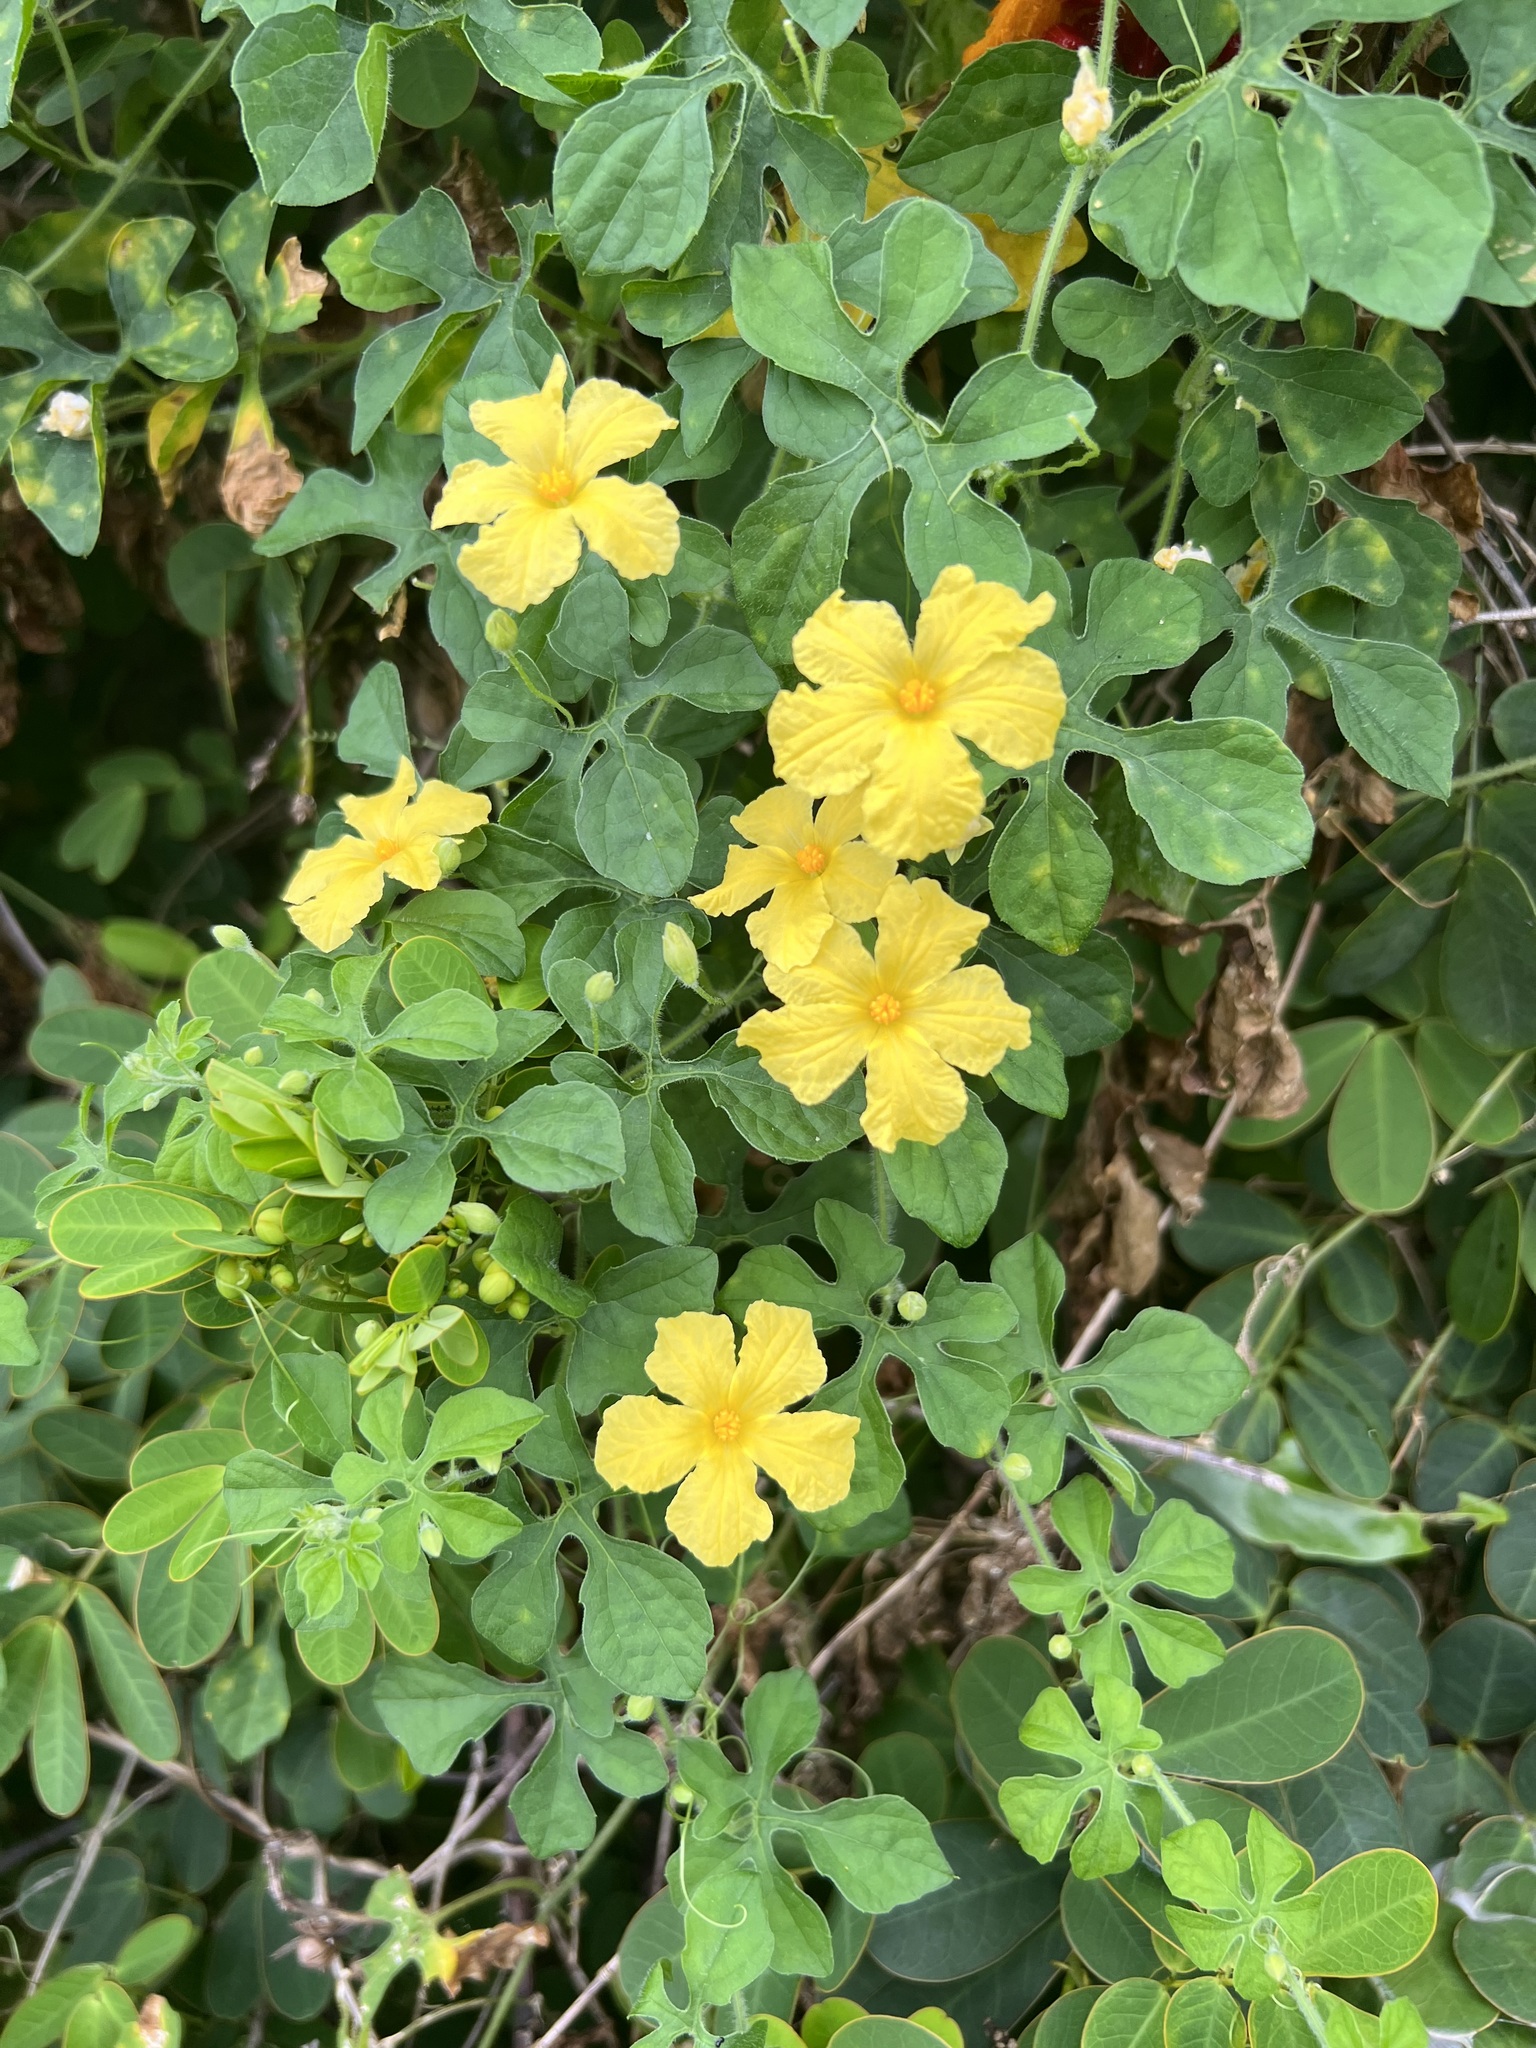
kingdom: Plantae
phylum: Tracheophyta
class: Magnoliopsida
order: Cucurbitales
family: Cucurbitaceae
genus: Momordica
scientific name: Momordica charantia
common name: Balsampear
